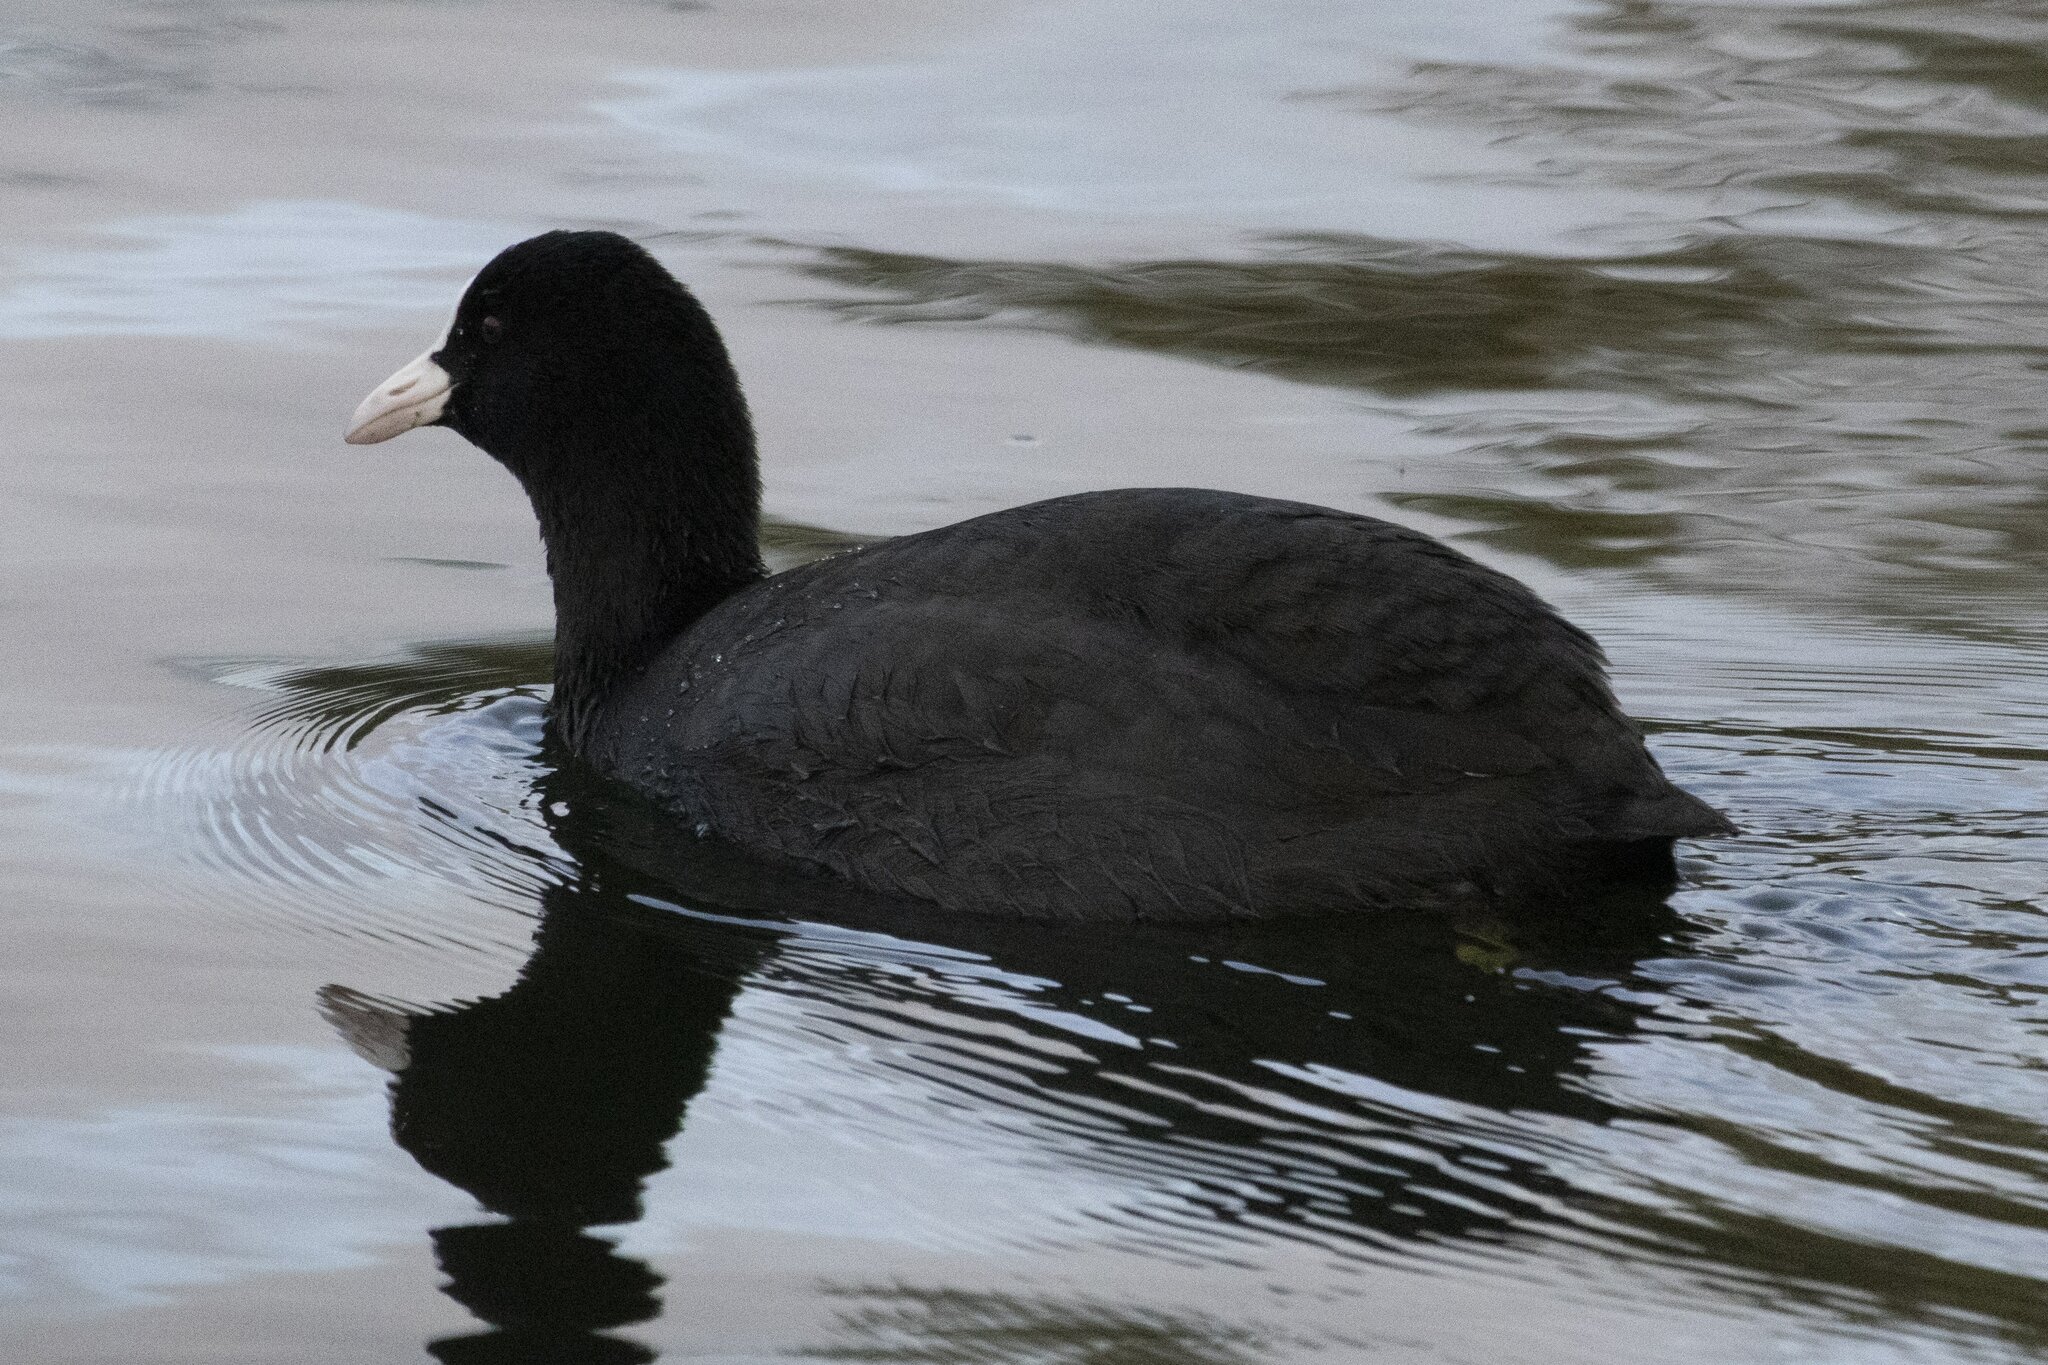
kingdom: Animalia
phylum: Chordata
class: Aves
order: Gruiformes
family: Rallidae
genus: Fulica
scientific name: Fulica atra
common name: Eurasian coot
